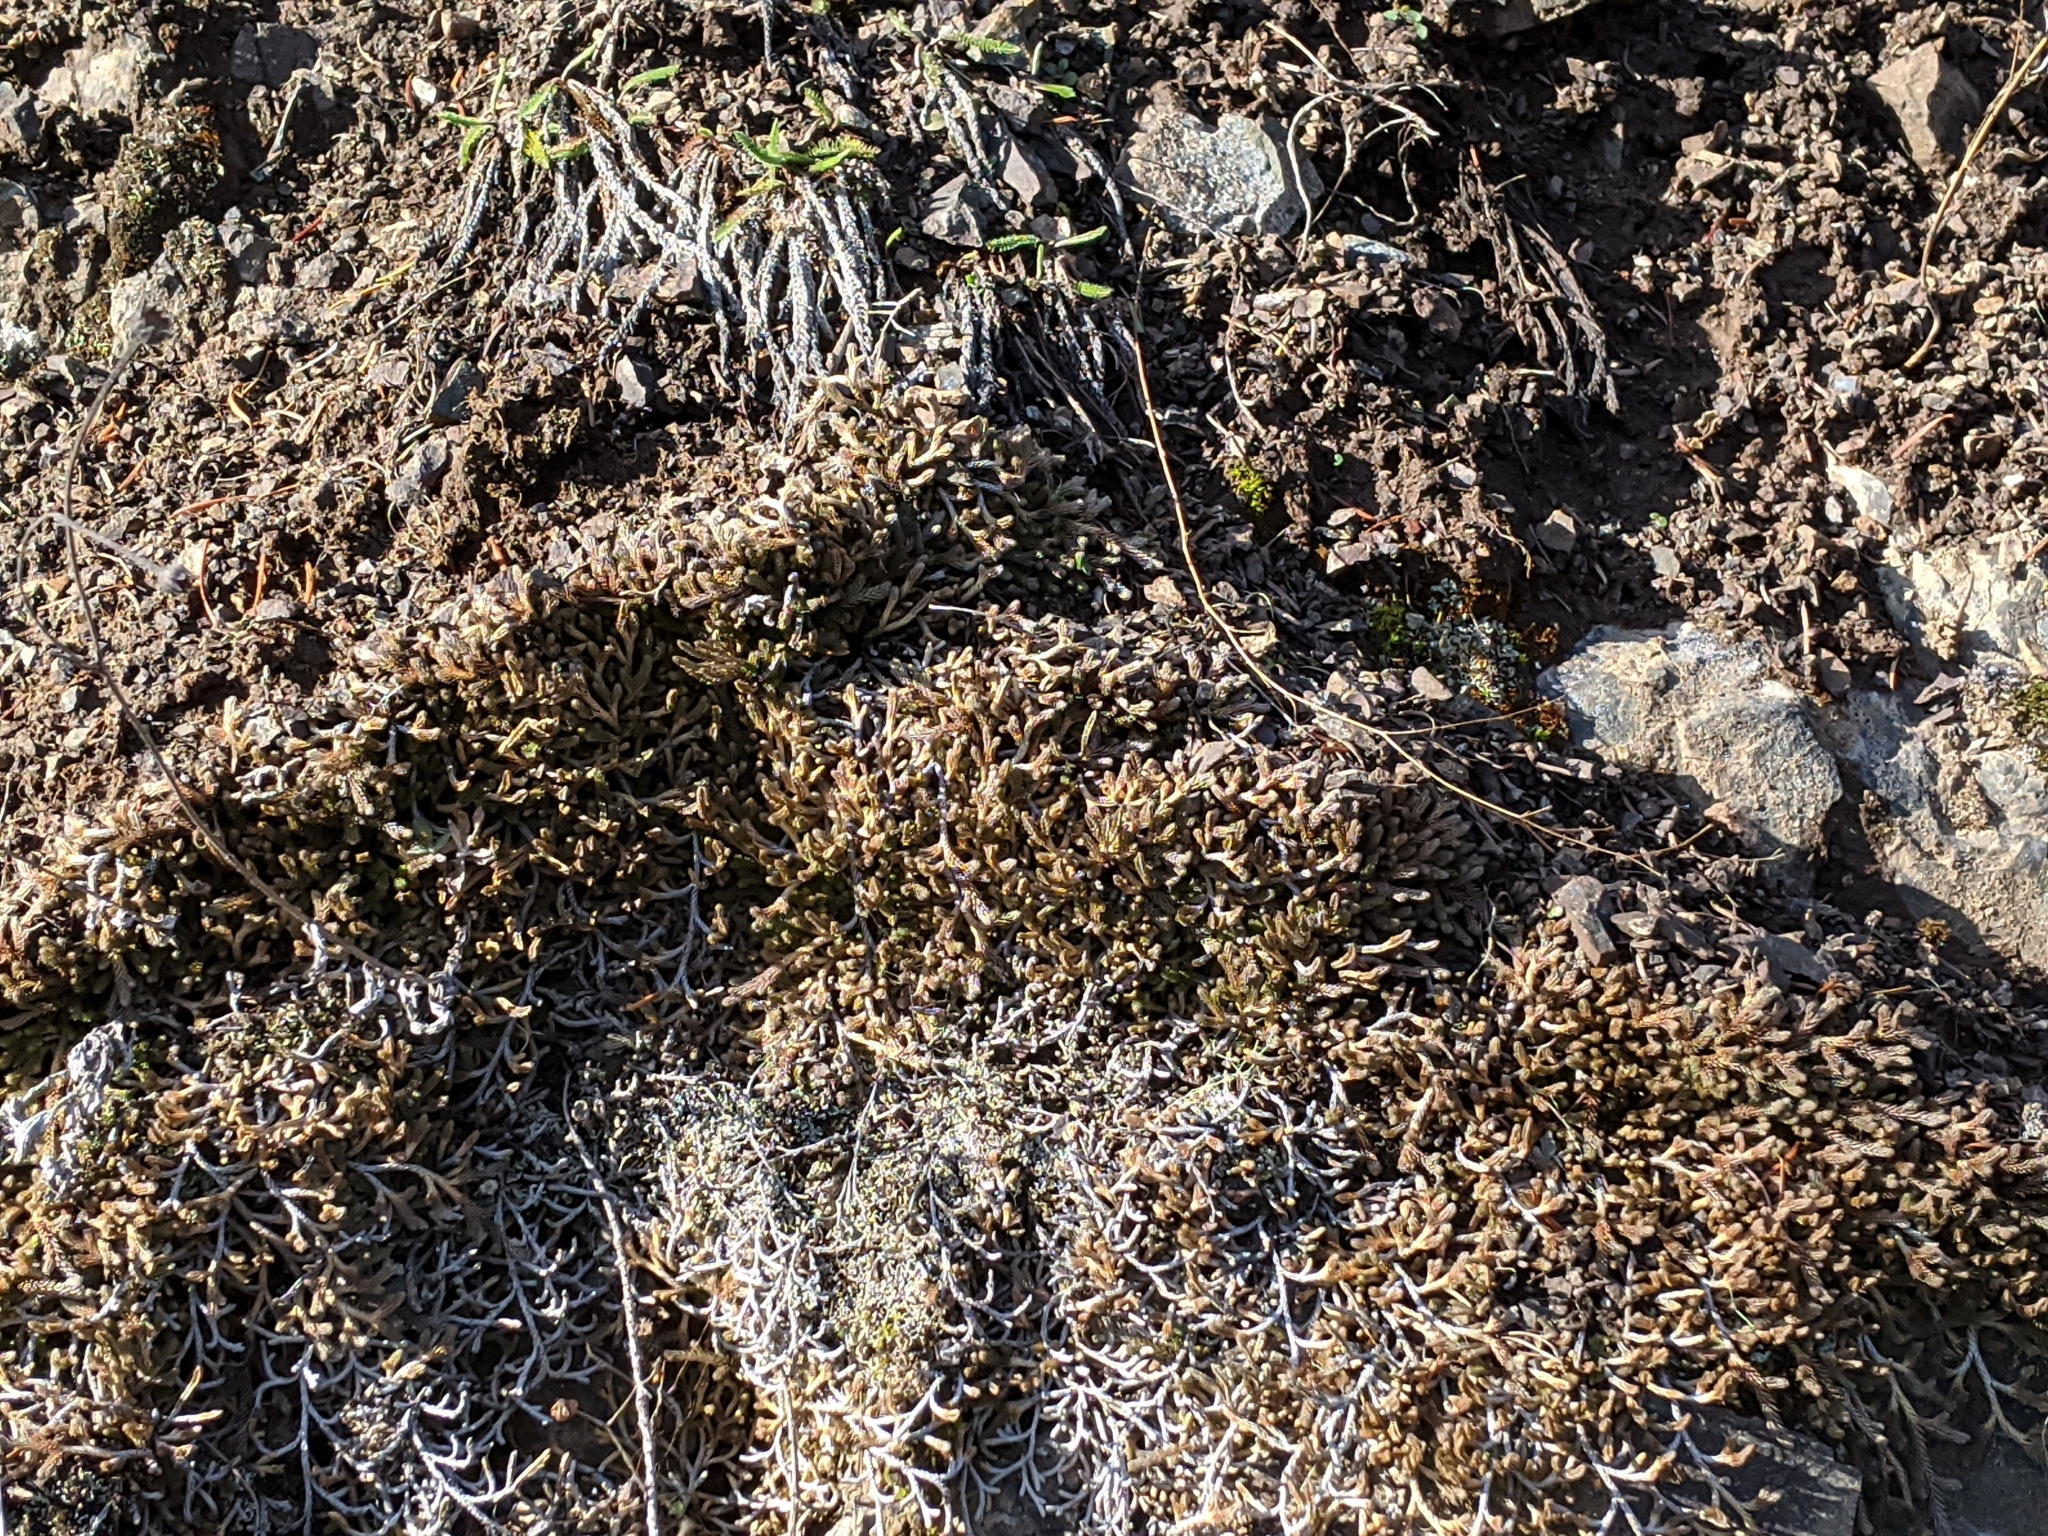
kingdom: Plantae
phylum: Tracheophyta
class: Lycopodiopsida
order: Selaginellales
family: Selaginellaceae
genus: Selaginella
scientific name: Selaginella wallacei
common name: Wallace's selaginella
